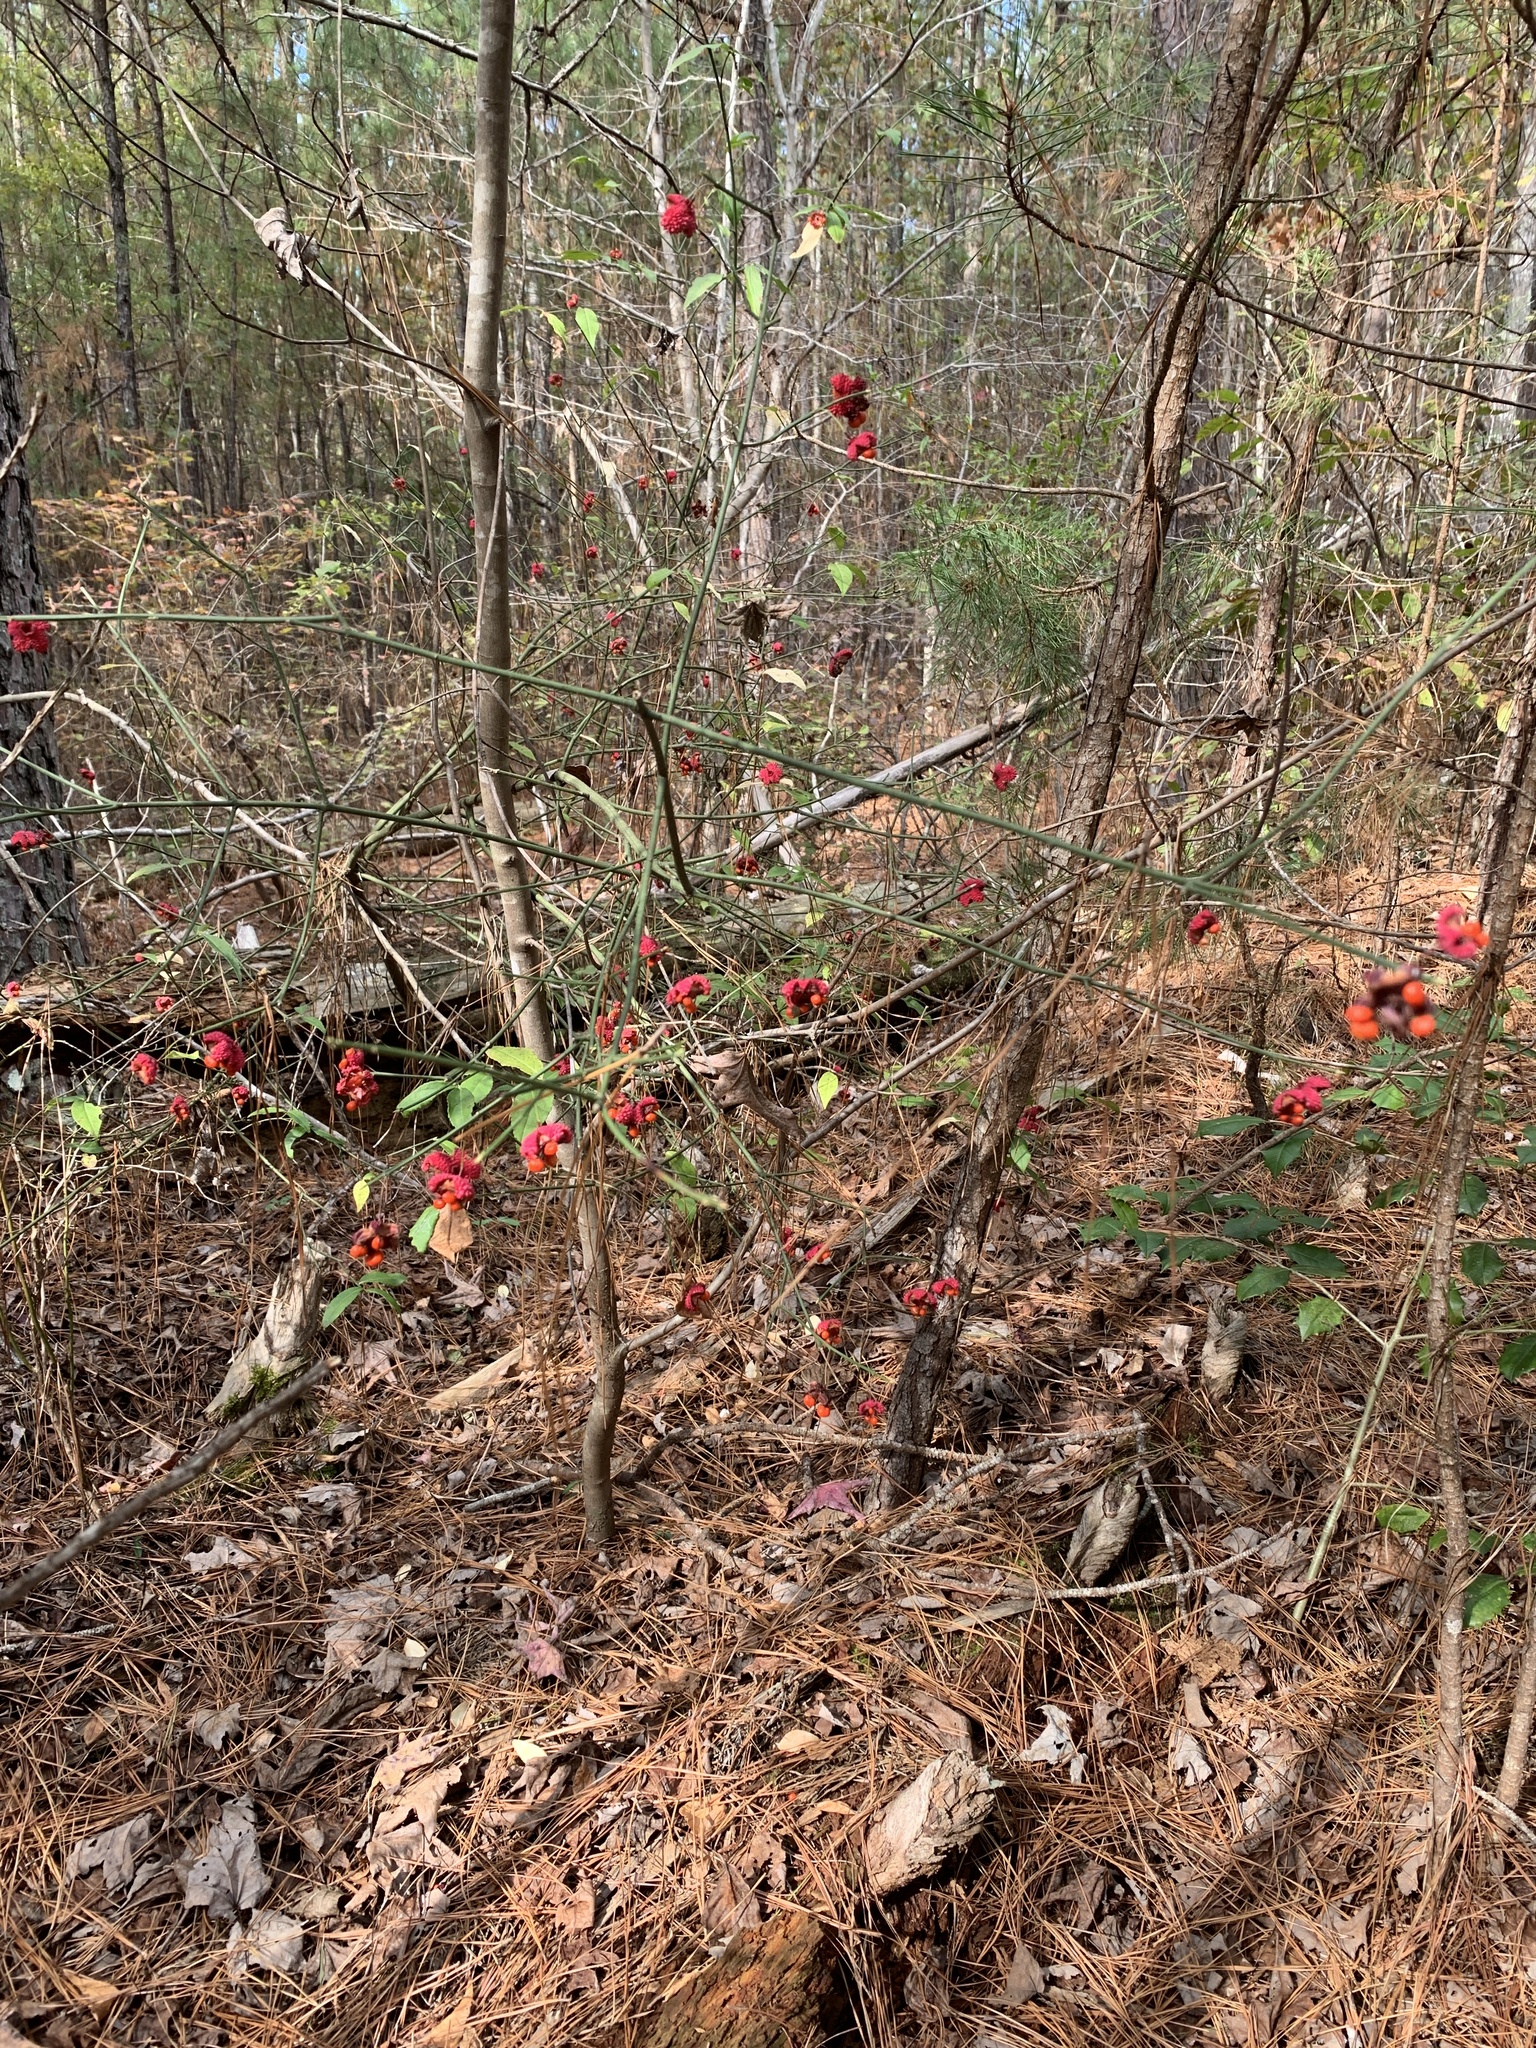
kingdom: Plantae
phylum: Tracheophyta
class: Magnoliopsida
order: Celastrales
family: Celastraceae
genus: Euonymus
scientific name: Euonymus americanus
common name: Bursting-heart
